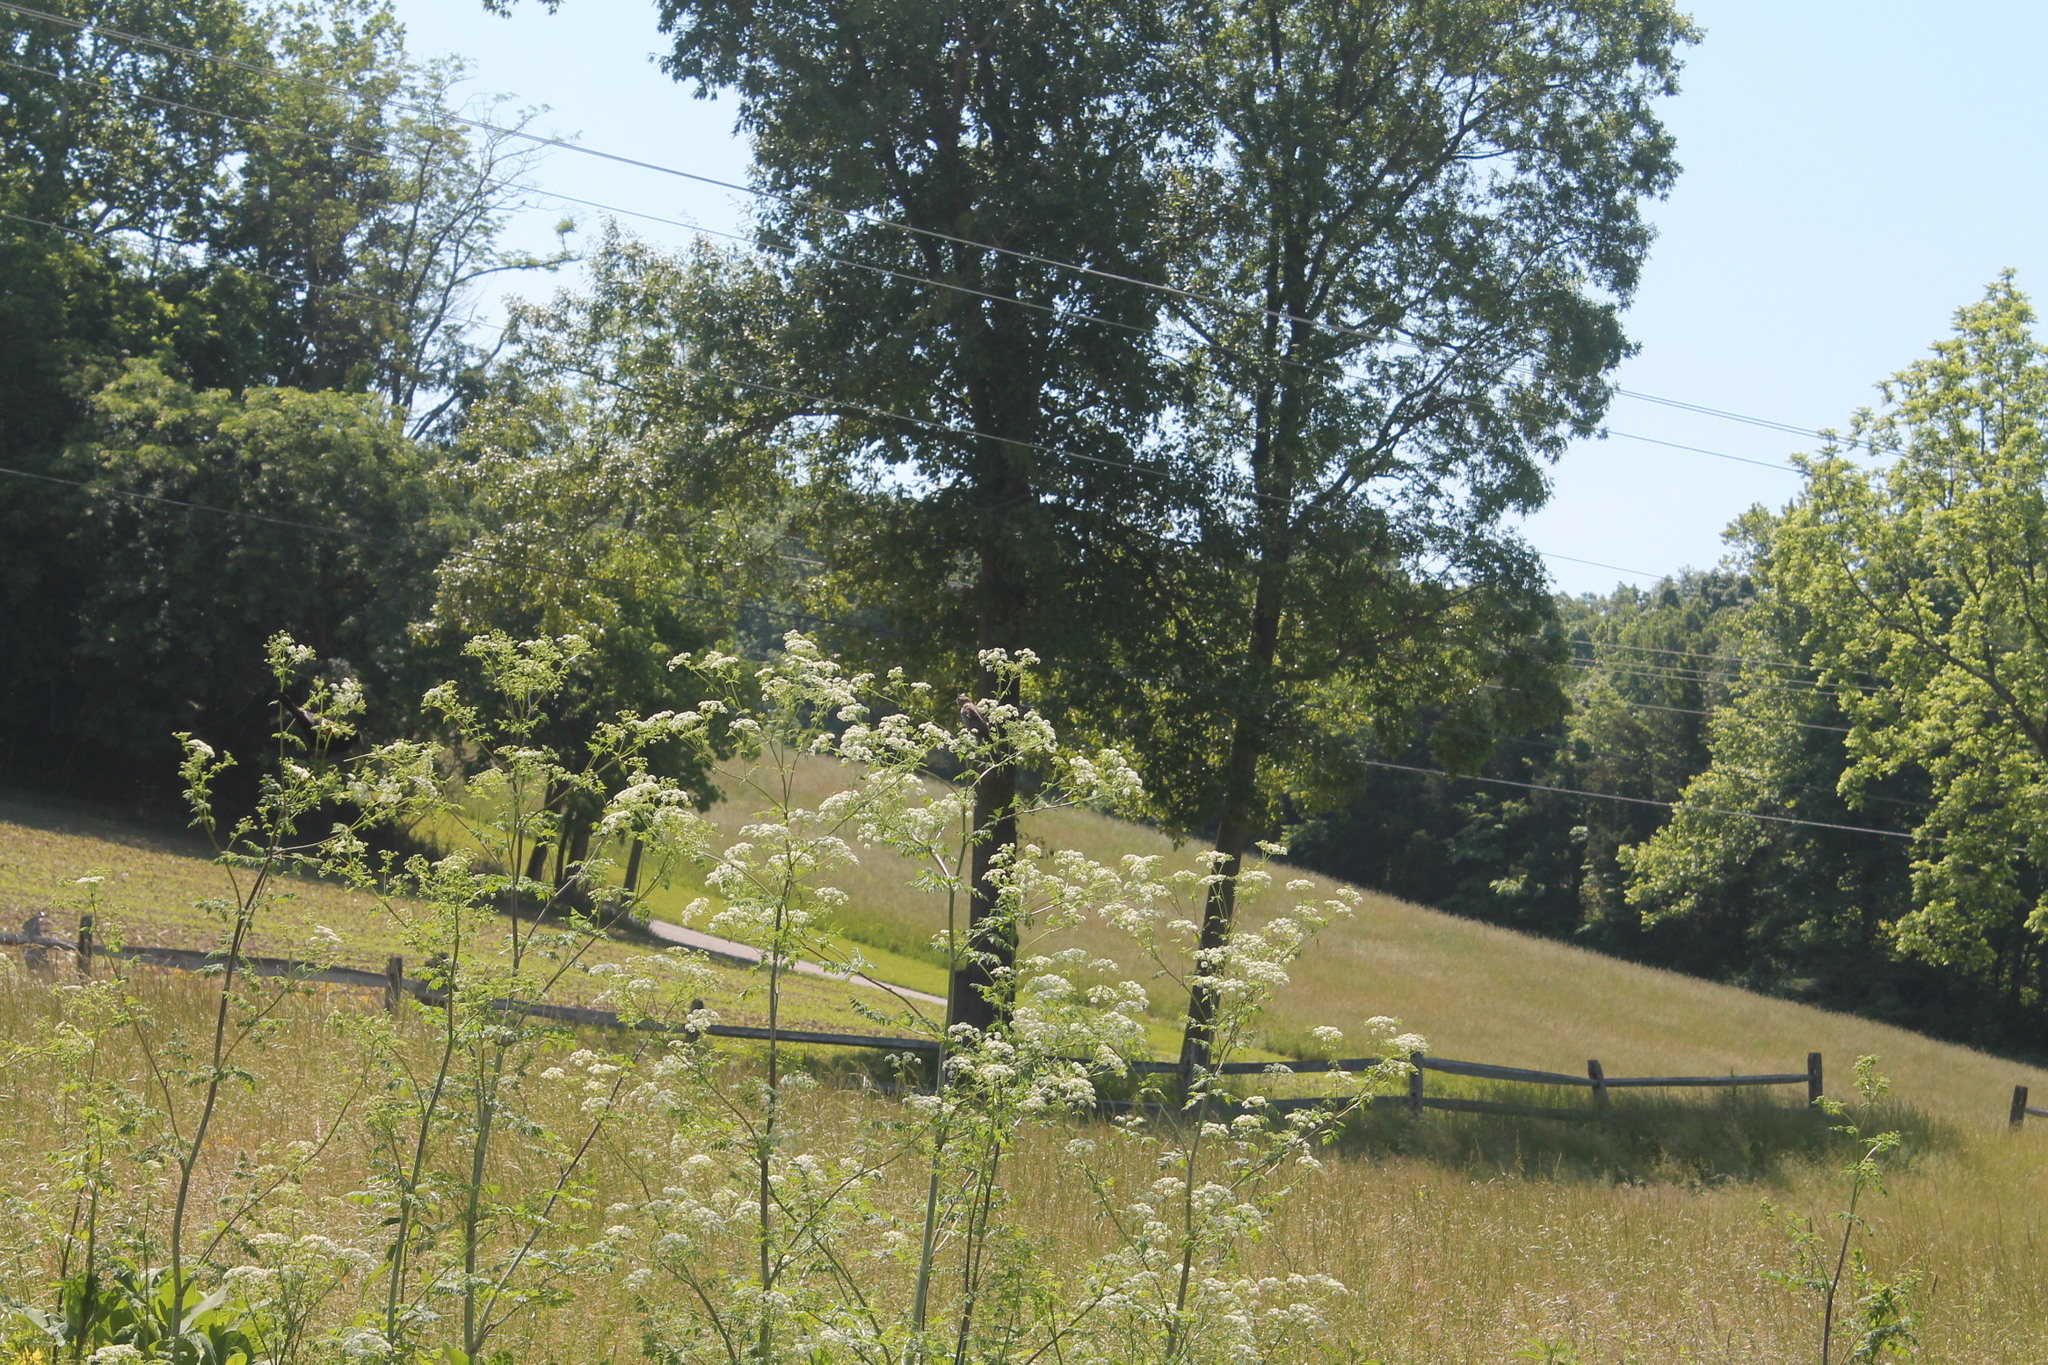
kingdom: Animalia
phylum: Chordata
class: Aves
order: Passeriformes
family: Icteridae
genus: Agelaius
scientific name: Agelaius phoeniceus
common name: Red-winged blackbird
